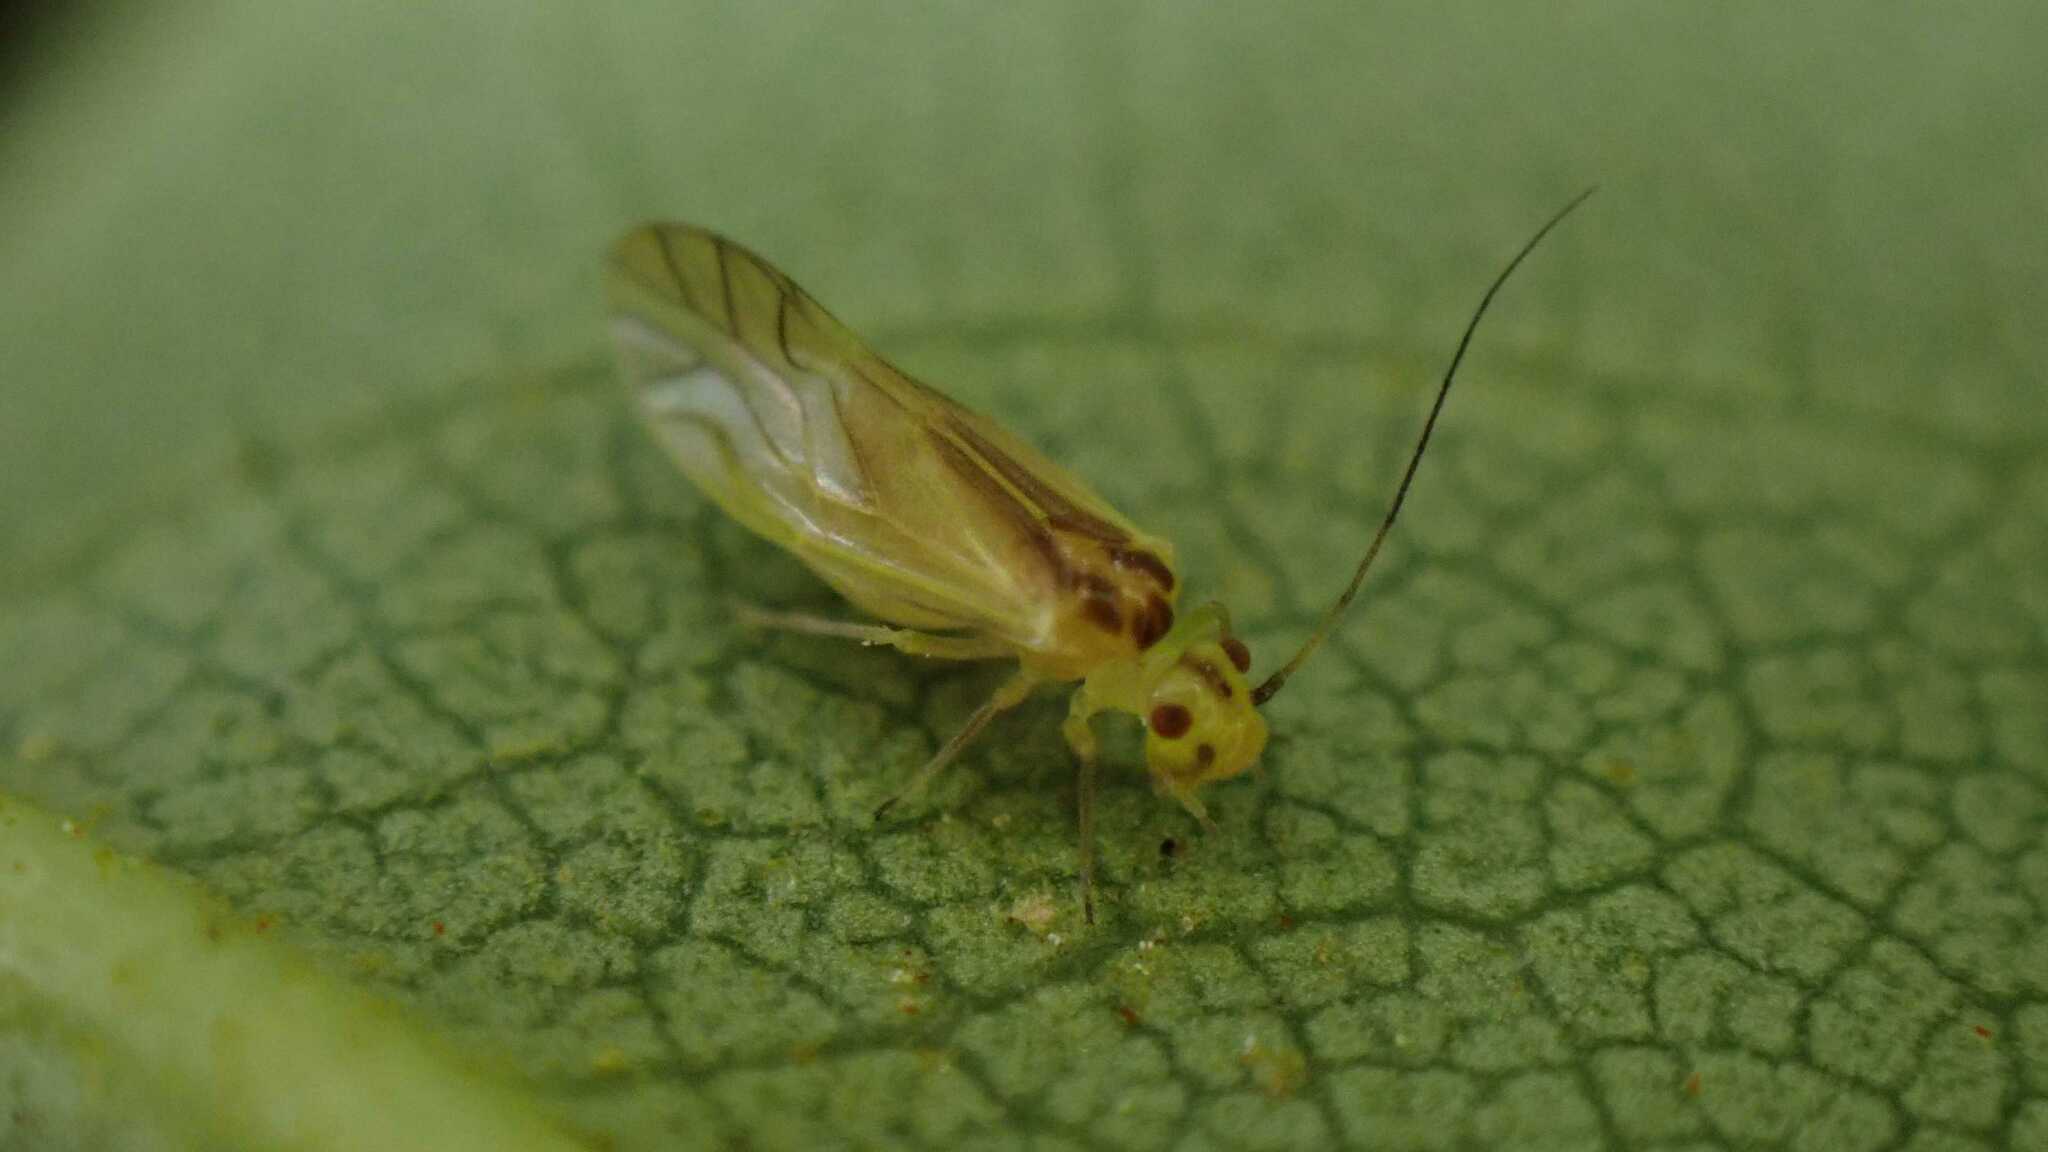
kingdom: Animalia
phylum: Arthropoda
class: Insecta
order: Psocodea
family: Caeciliusidae
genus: Valenzuela
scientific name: Valenzuela flavidus
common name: Yellow barklouse
